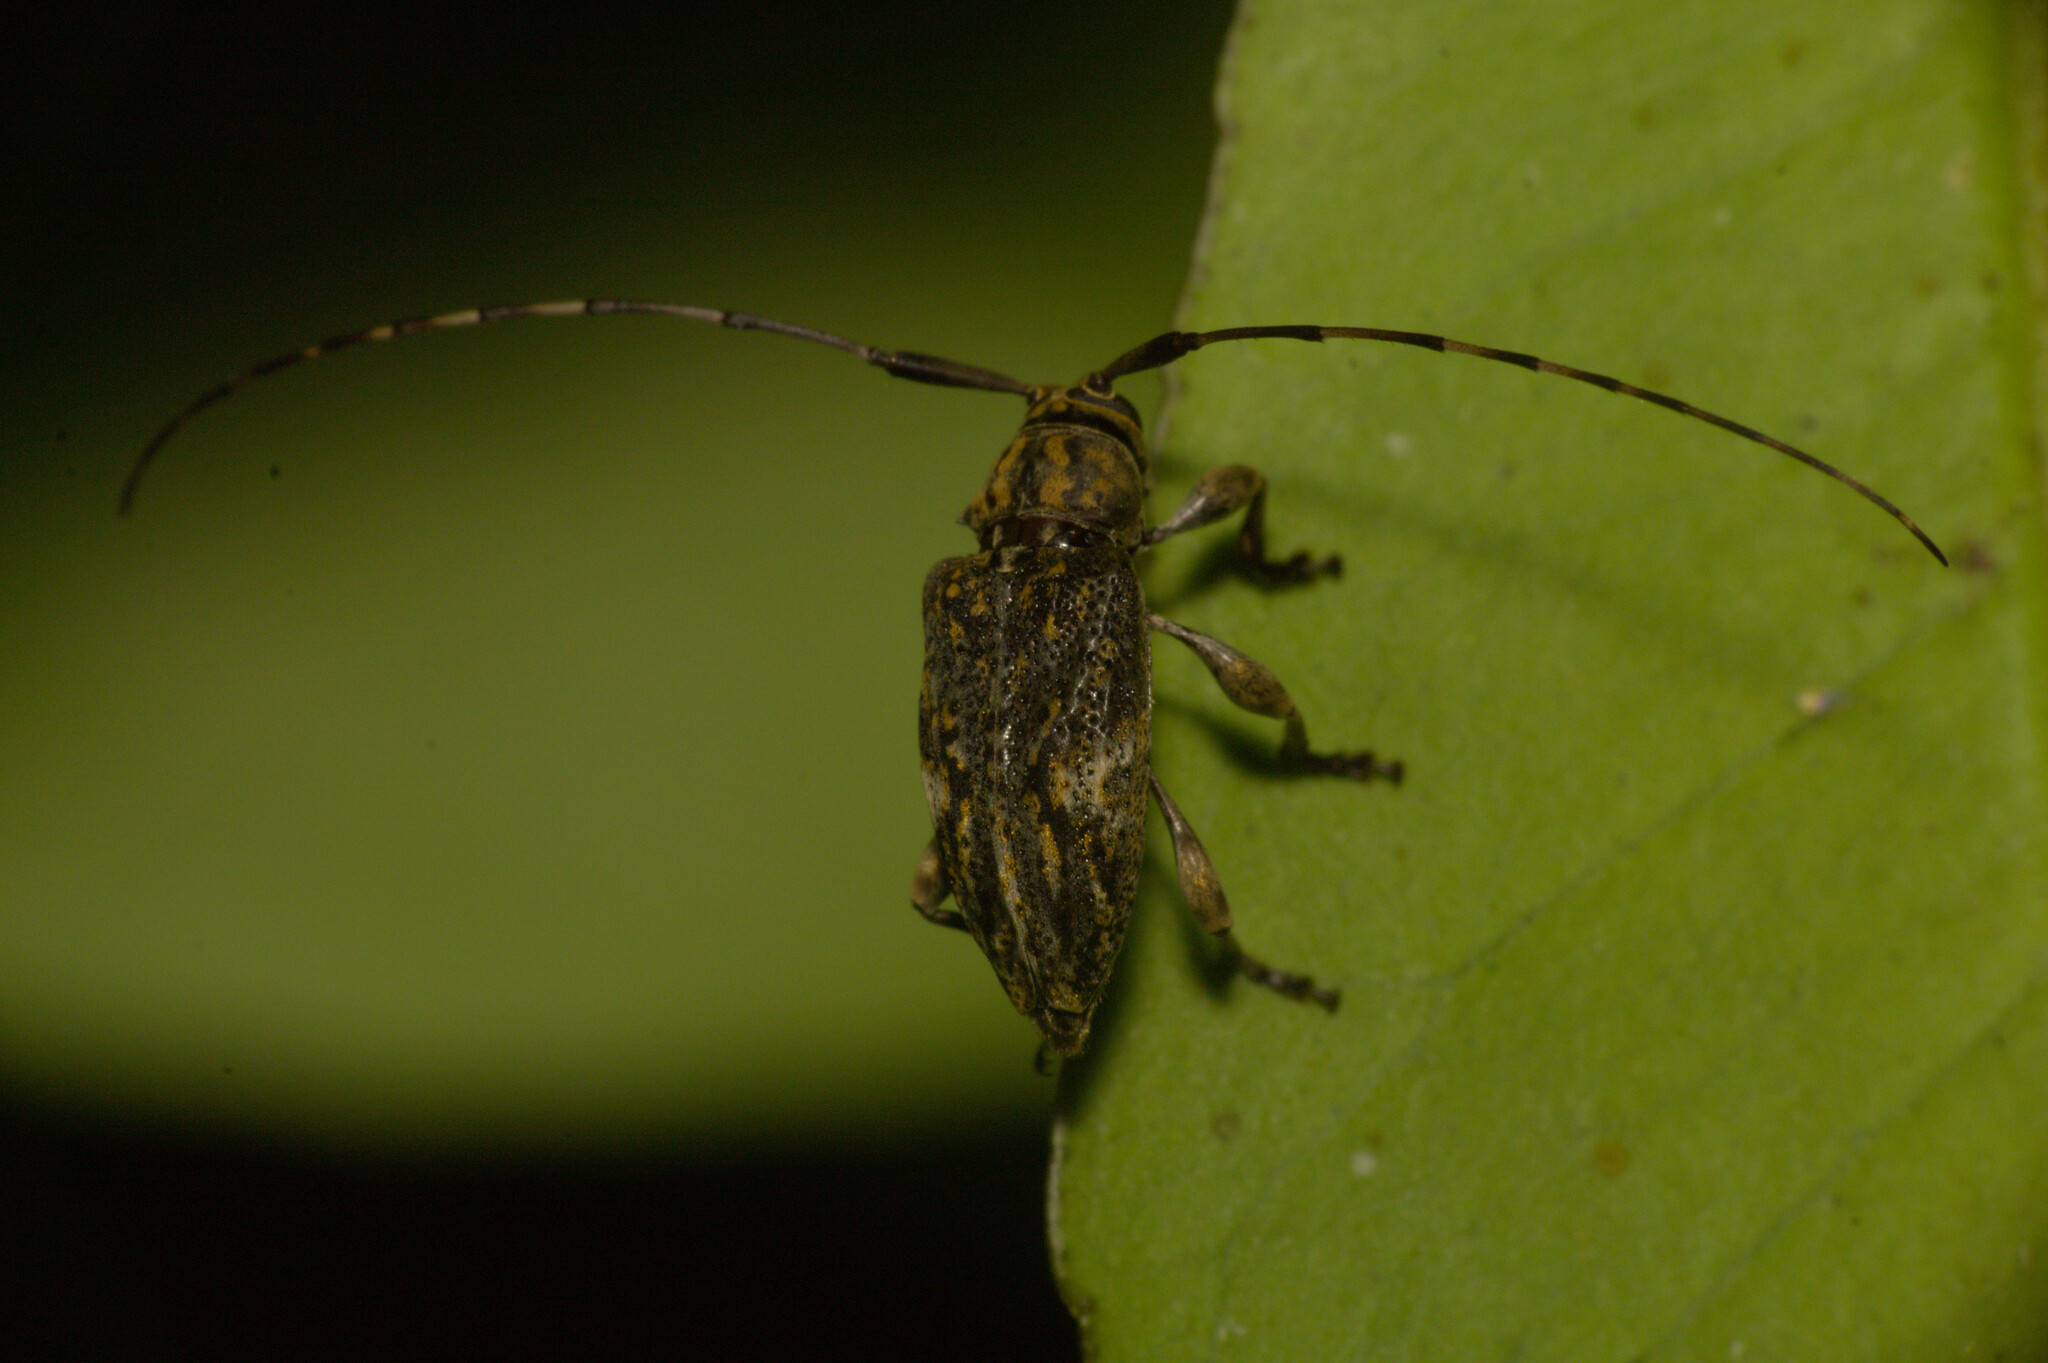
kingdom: Animalia
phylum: Arthropoda
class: Insecta
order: Coleoptera
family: Cerambycidae
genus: Nyssodrysina
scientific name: Nyssodrysina lignaria
